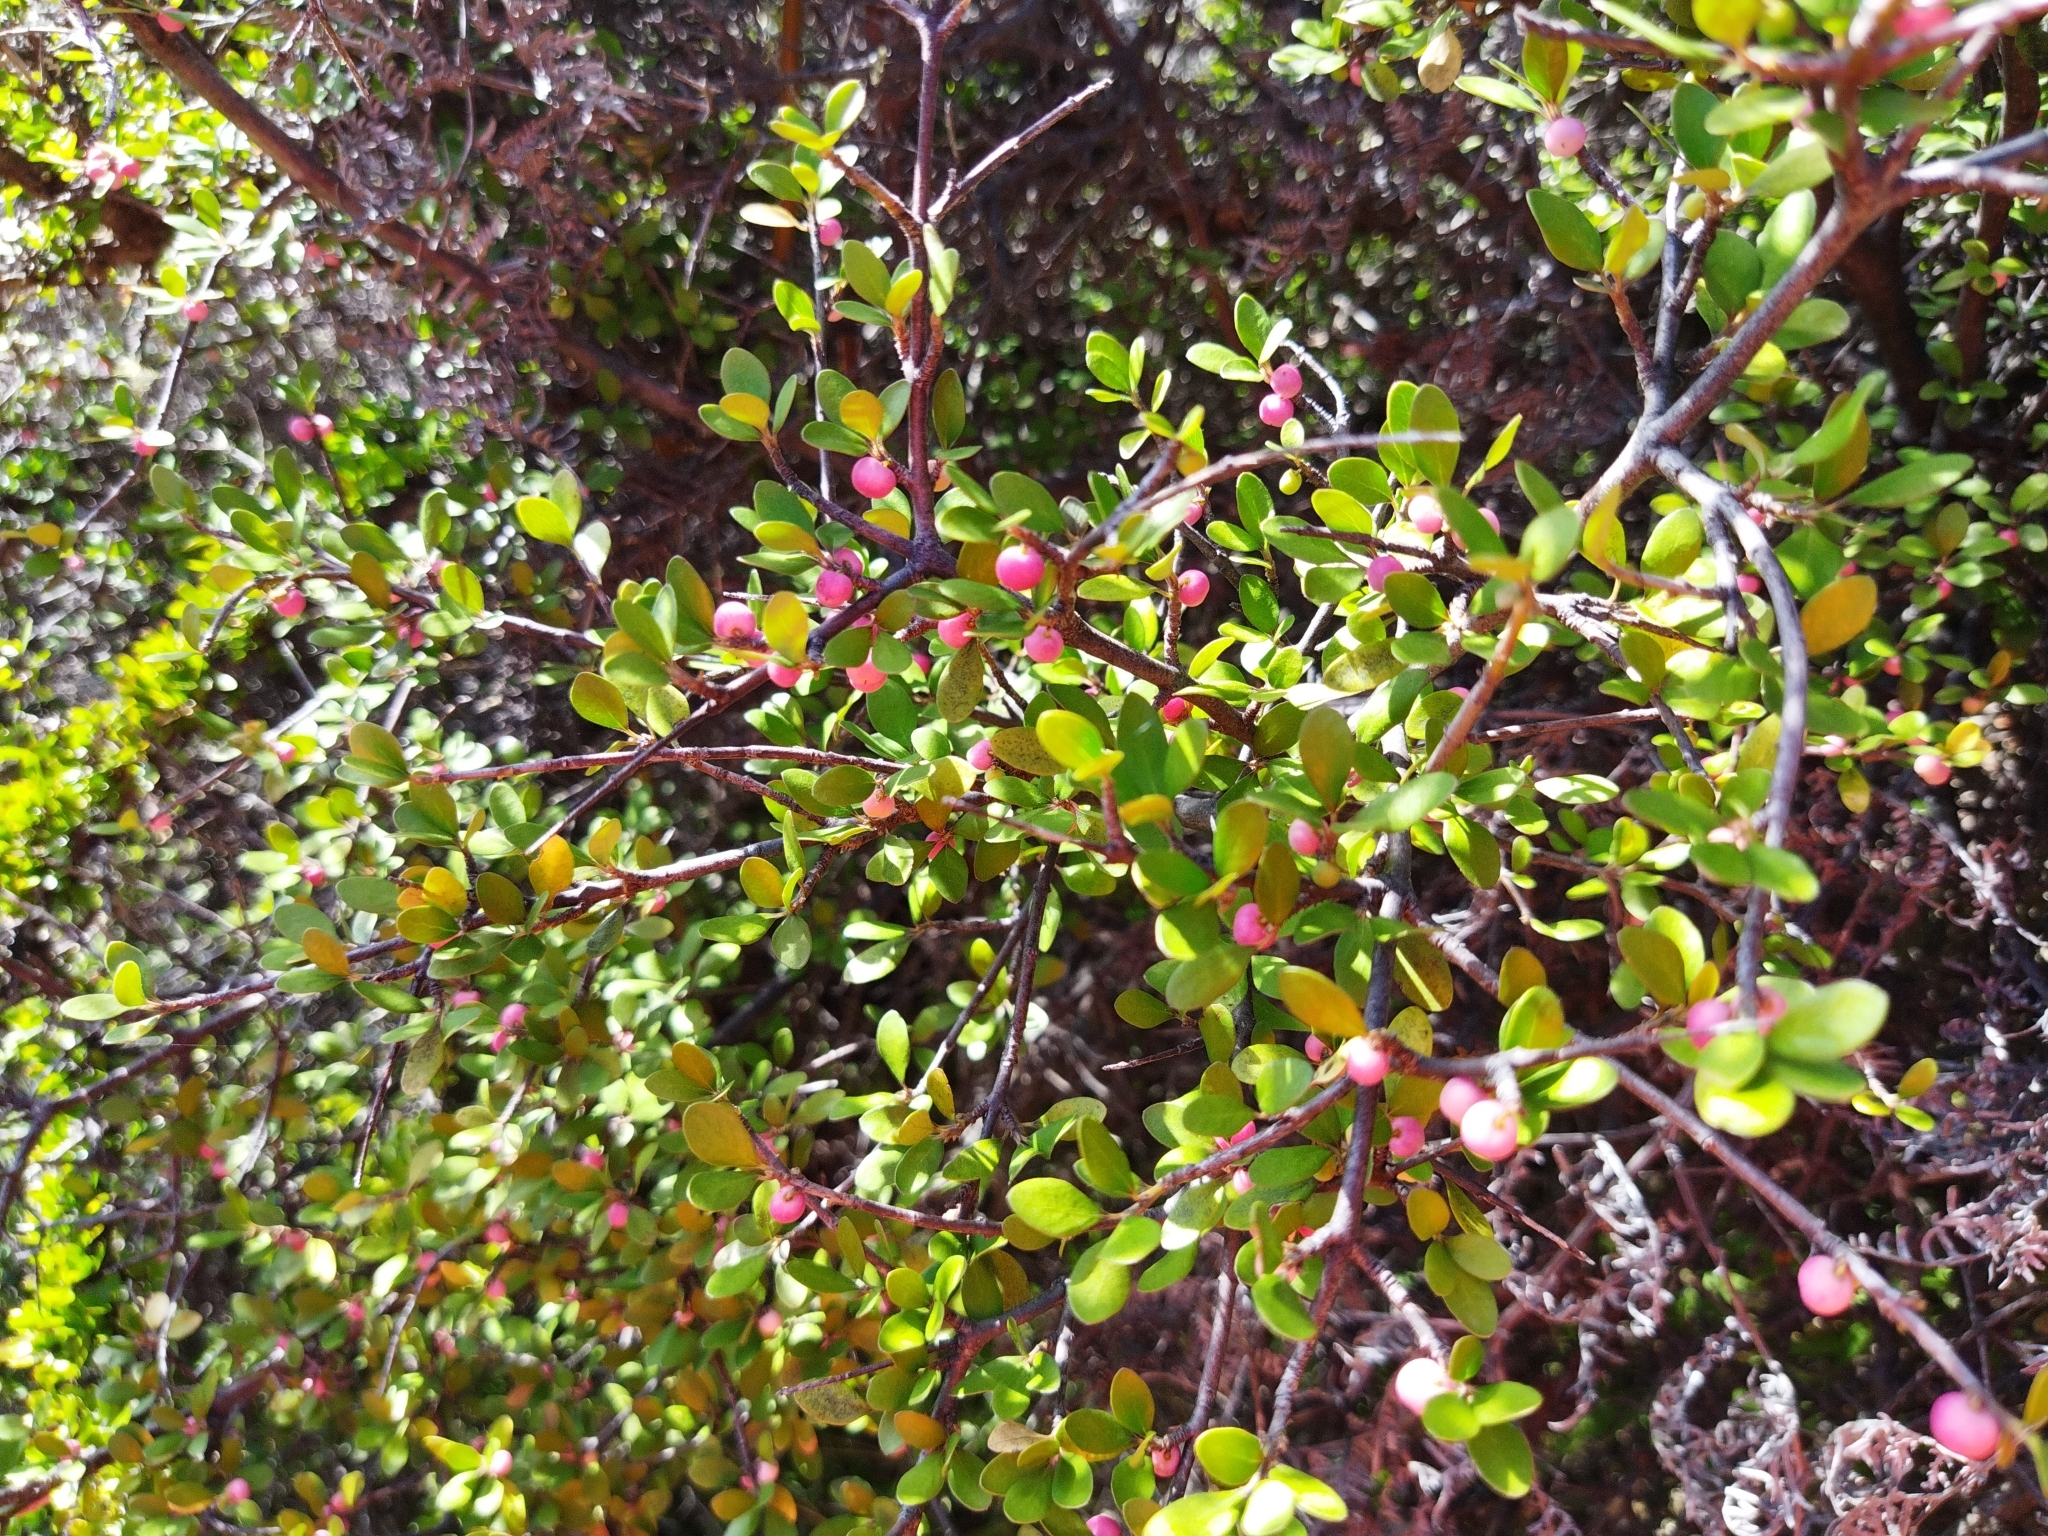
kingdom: Plantae
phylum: Tracheophyta
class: Magnoliopsida
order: Oxalidales
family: Elaeocarpaceae
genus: Aristotelia
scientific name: Aristotelia fruticosa
